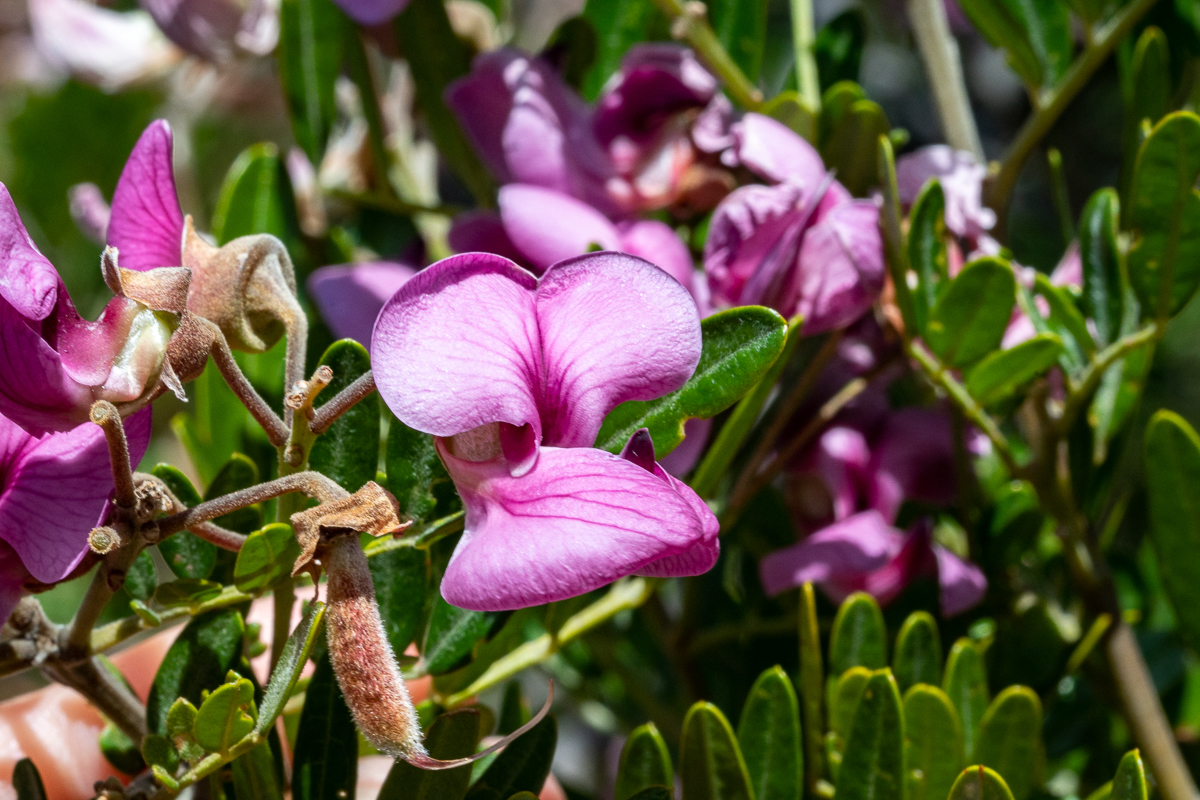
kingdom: Plantae
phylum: Tracheophyta
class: Magnoliopsida
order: Fabales
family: Fabaceae
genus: Virgilia
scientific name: Virgilia oroboides
